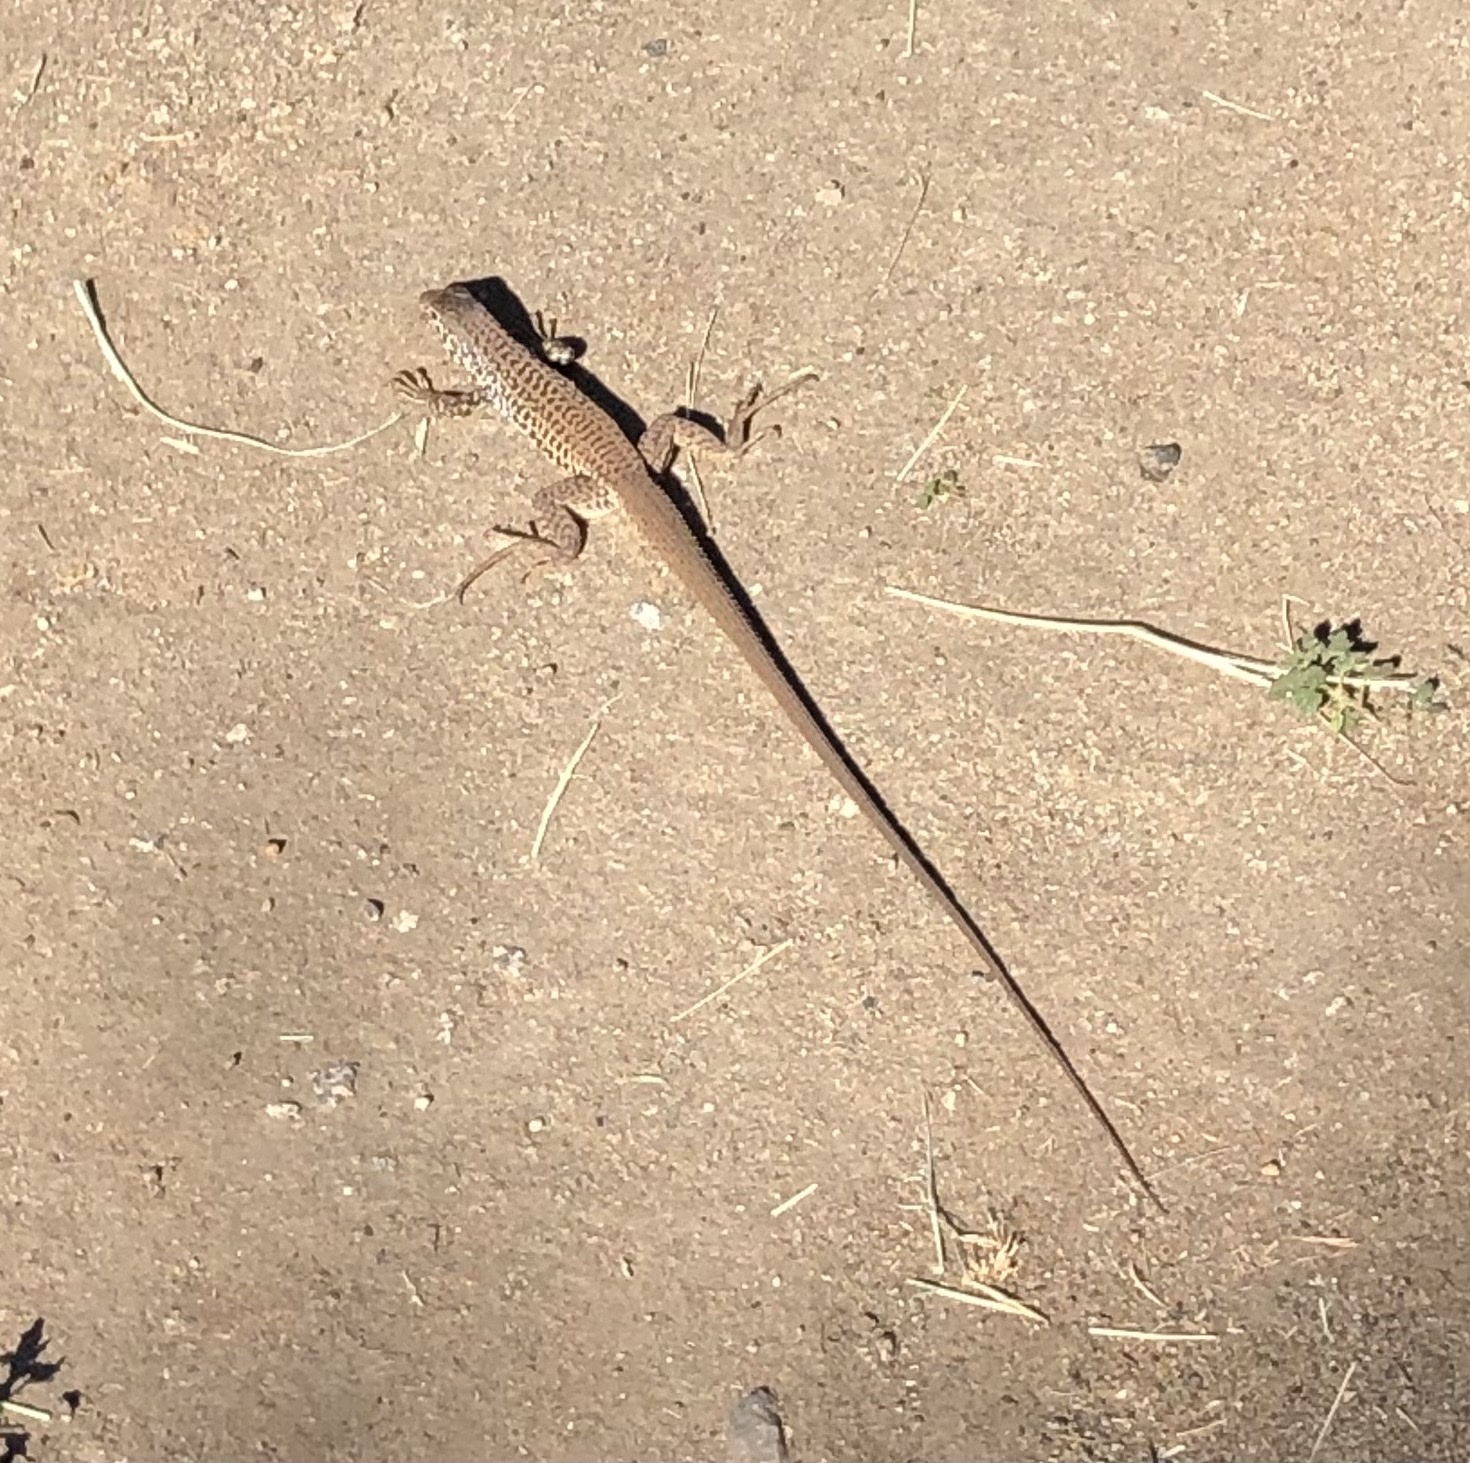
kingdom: Animalia
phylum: Chordata
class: Squamata
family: Teiidae
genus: Aspidoscelis
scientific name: Aspidoscelis tigris
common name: Tiger whiptail
